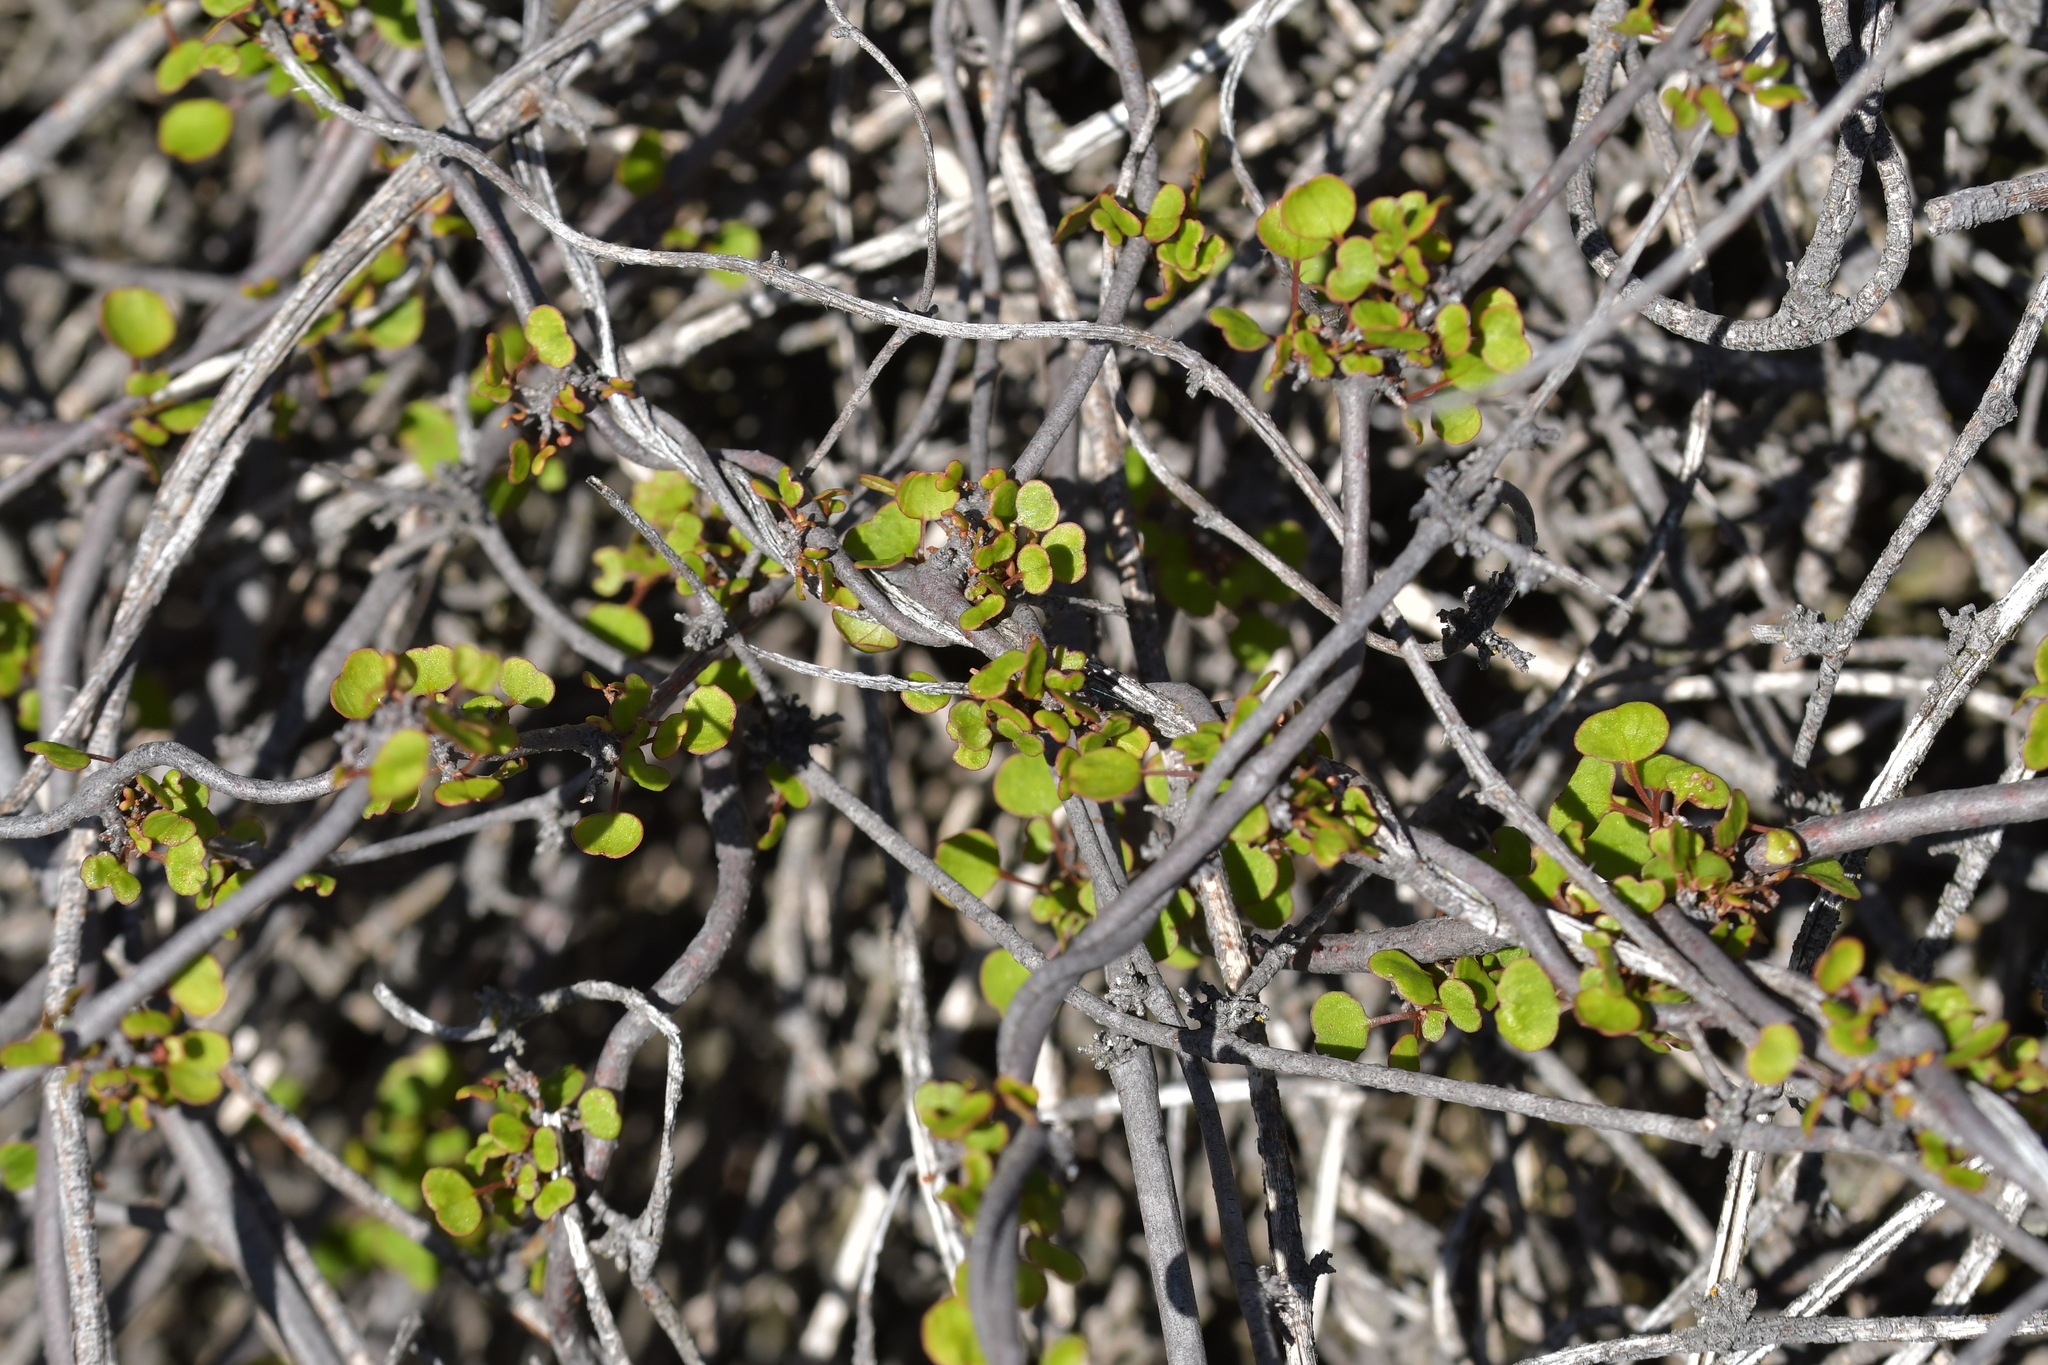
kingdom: Plantae
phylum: Tracheophyta
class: Magnoliopsida
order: Caryophyllales
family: Polygonaceae
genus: Muehlenbeckia
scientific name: Muehlenbeckia complexa
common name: Wireplant
